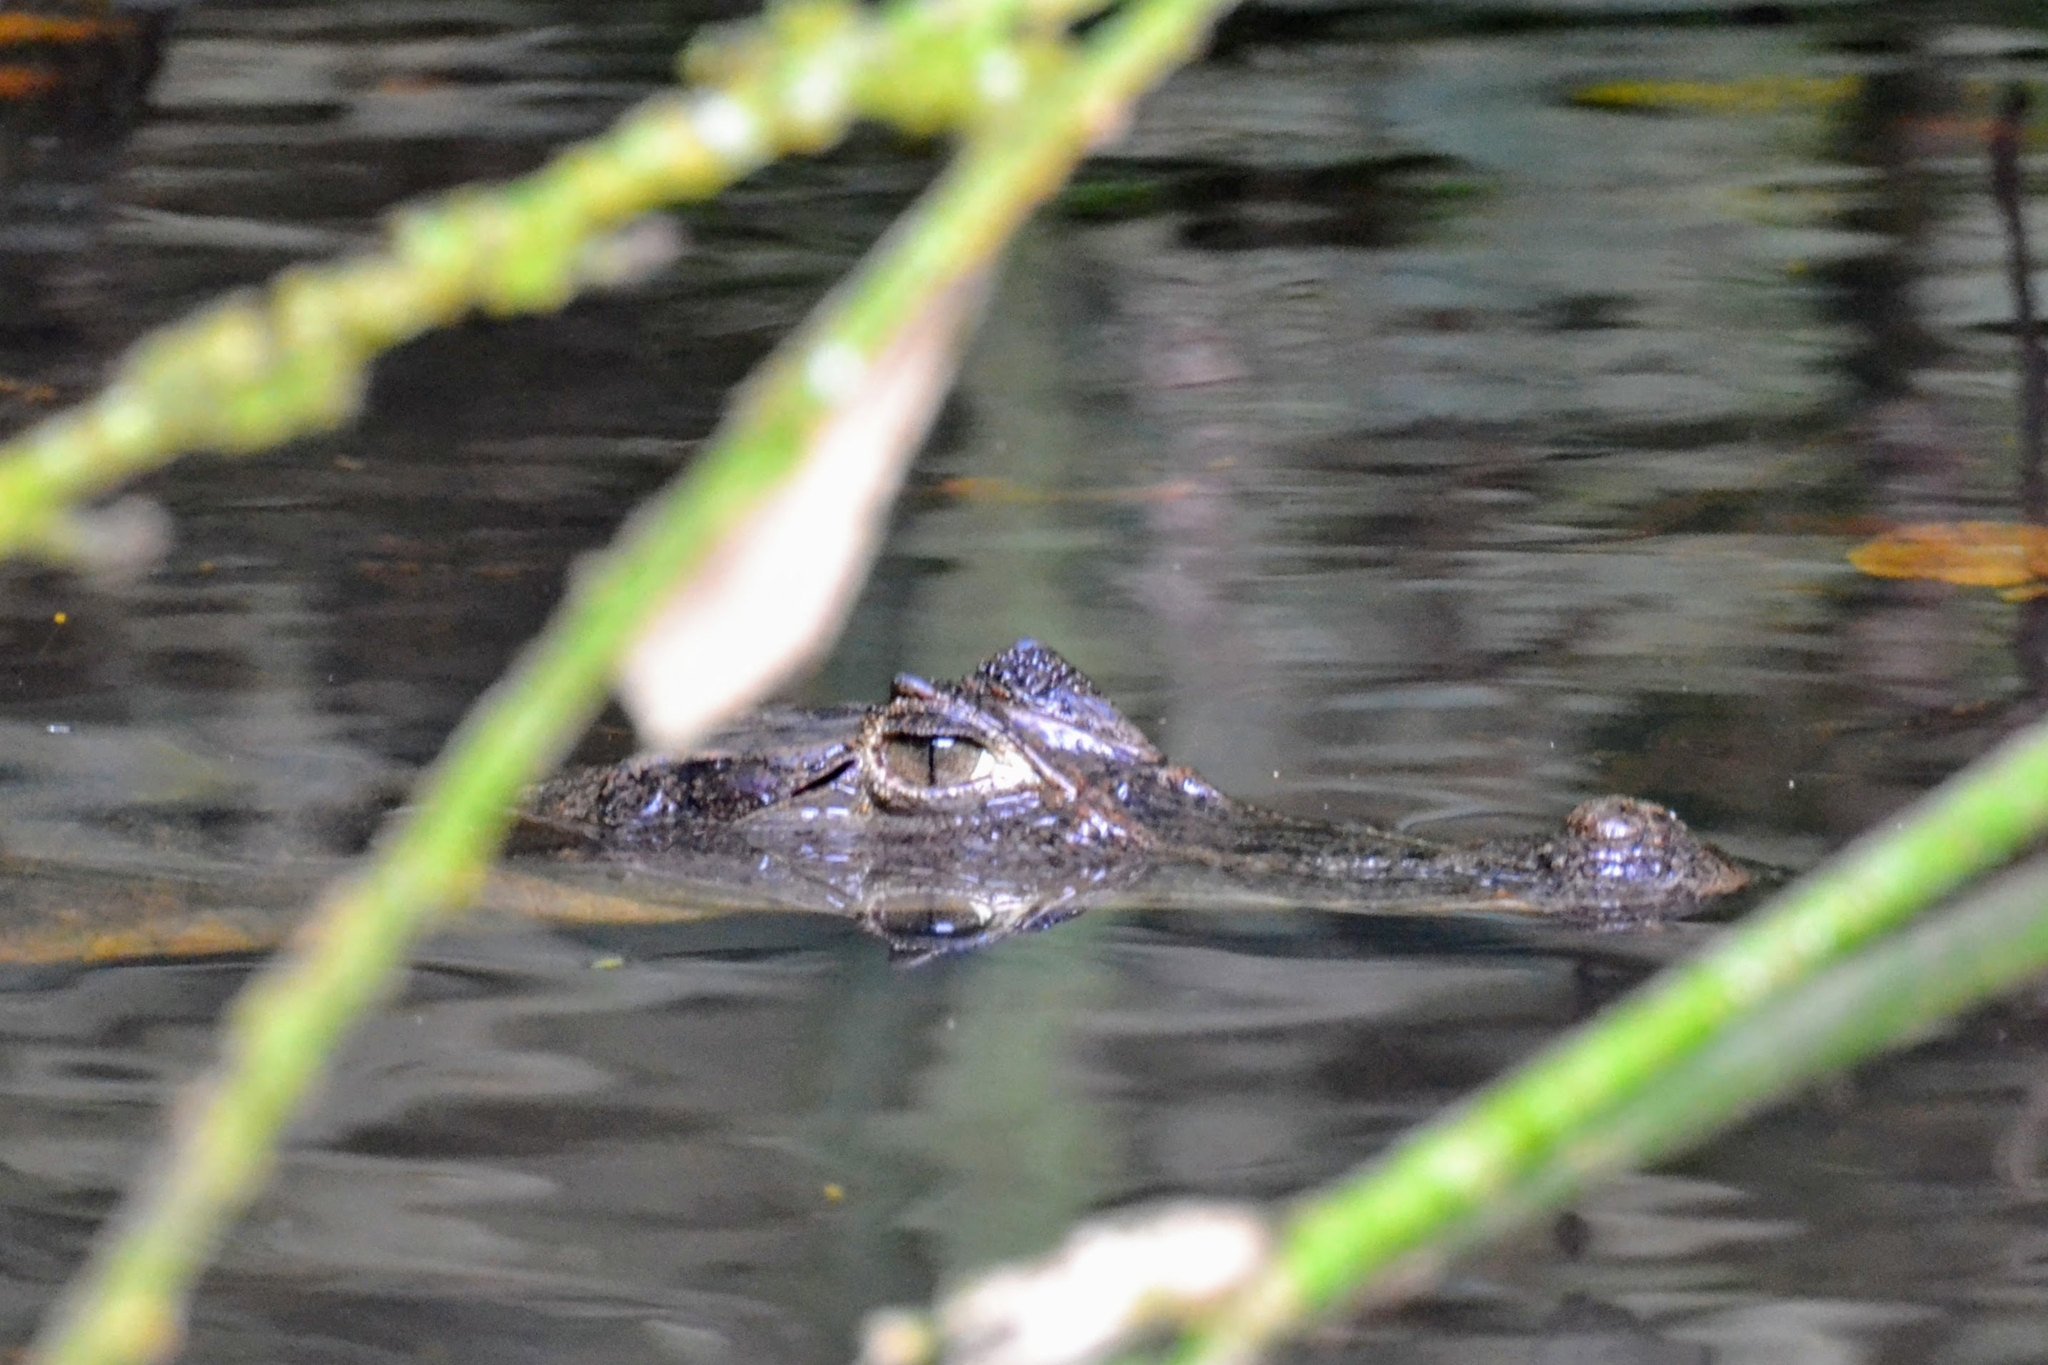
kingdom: Animalia
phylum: Chordata
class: Crocodylia
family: Alligatoridae
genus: Caiman
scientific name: Caiman crocodilus
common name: Common caiman
